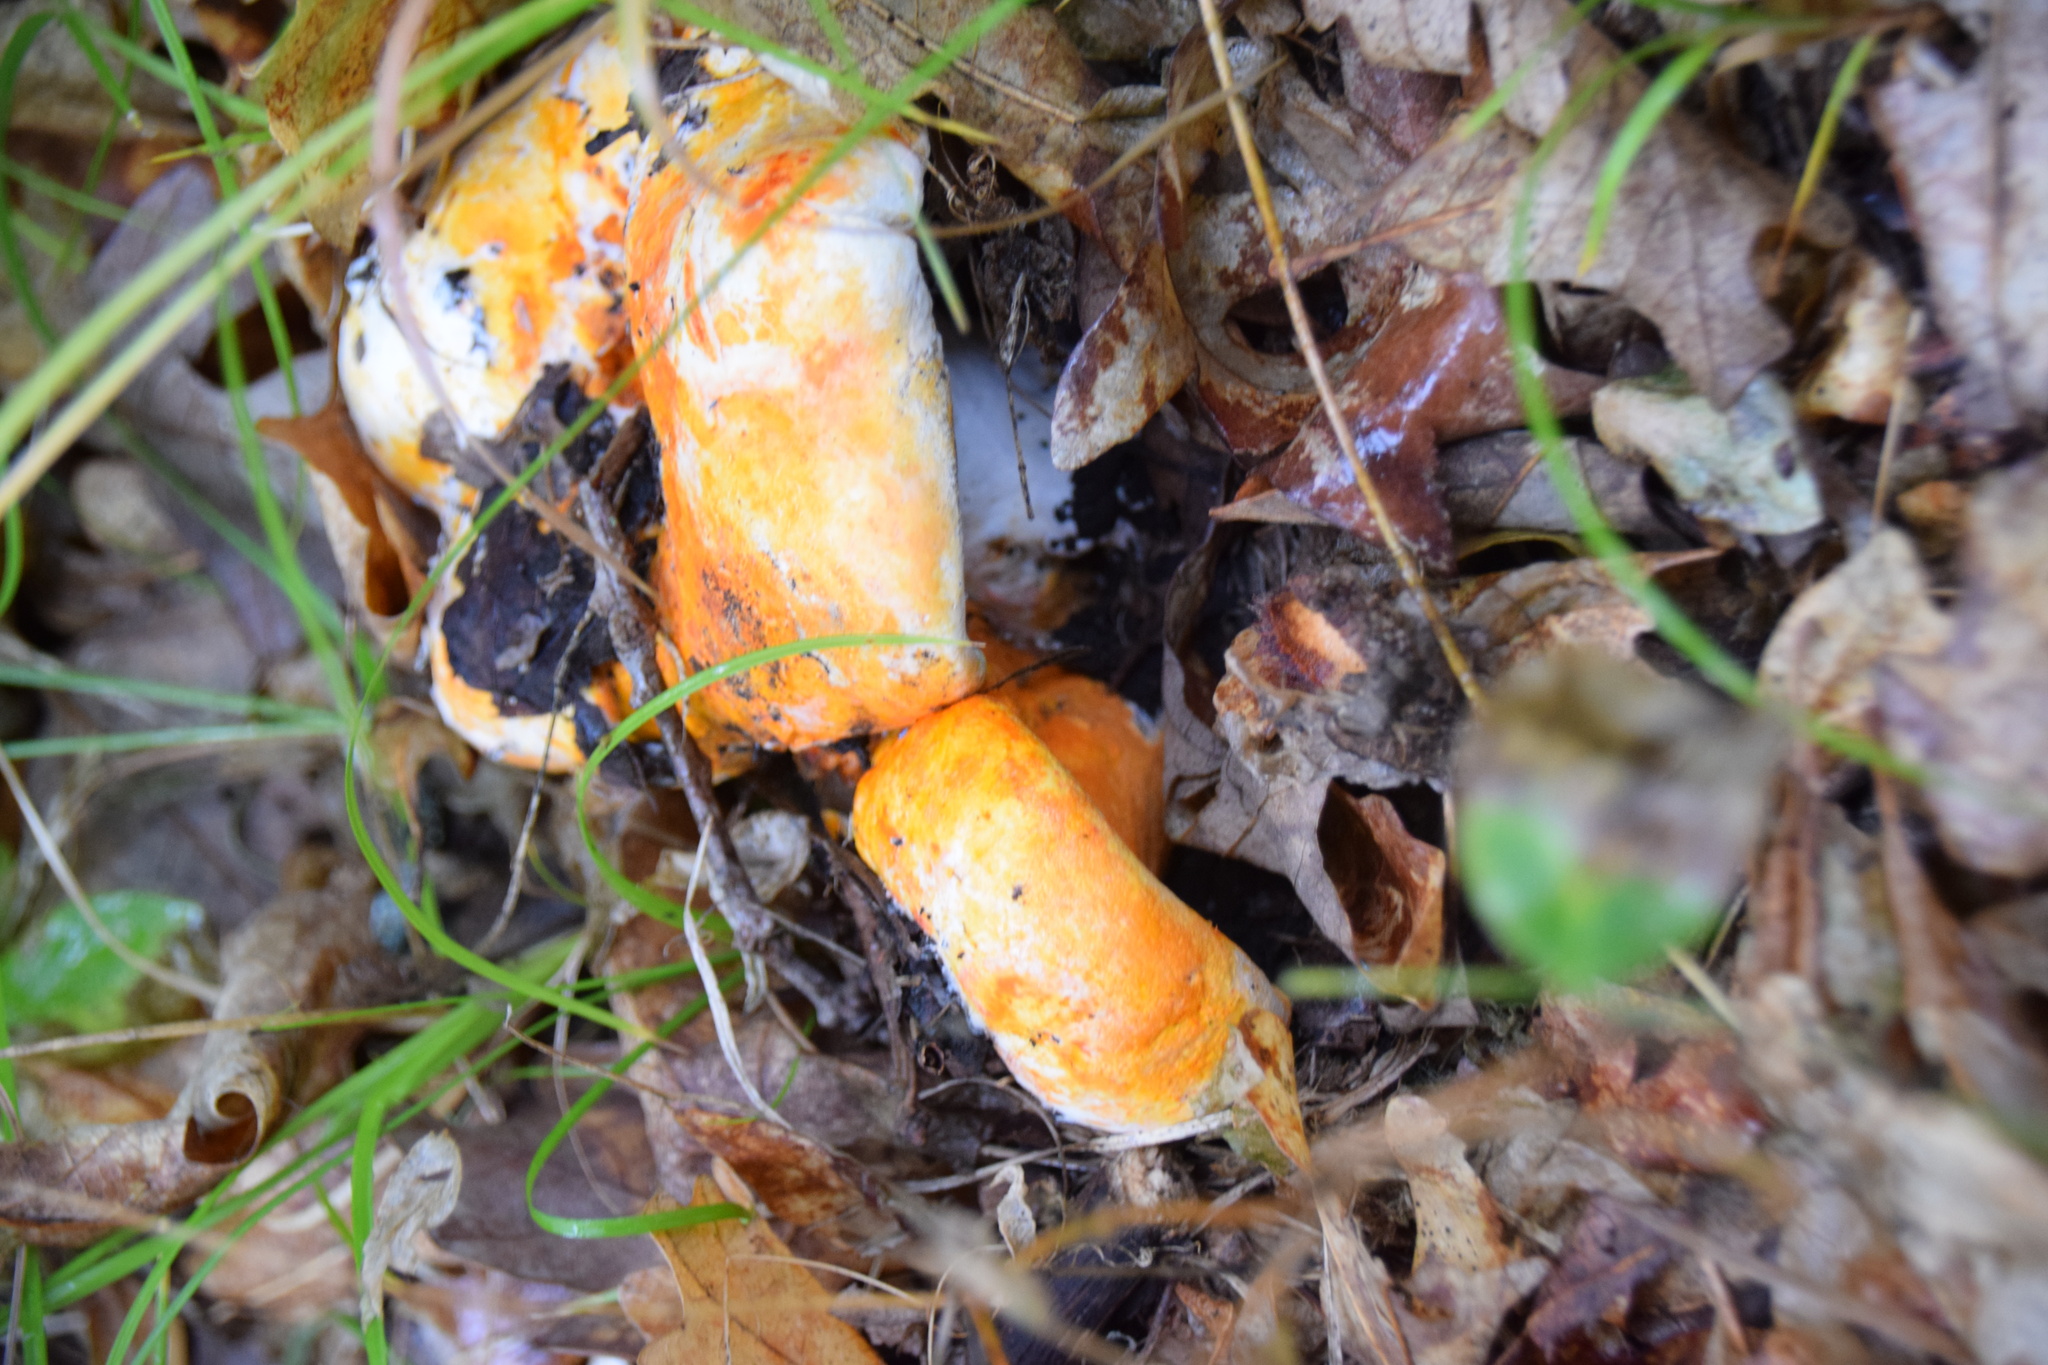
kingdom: Fungi
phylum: Ascomycota
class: Sordariomycetes
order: Hypocreales
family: Hypocreaceae
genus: Hypomyces
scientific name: Hypomyces lactifluorum
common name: Lobster mushroom
